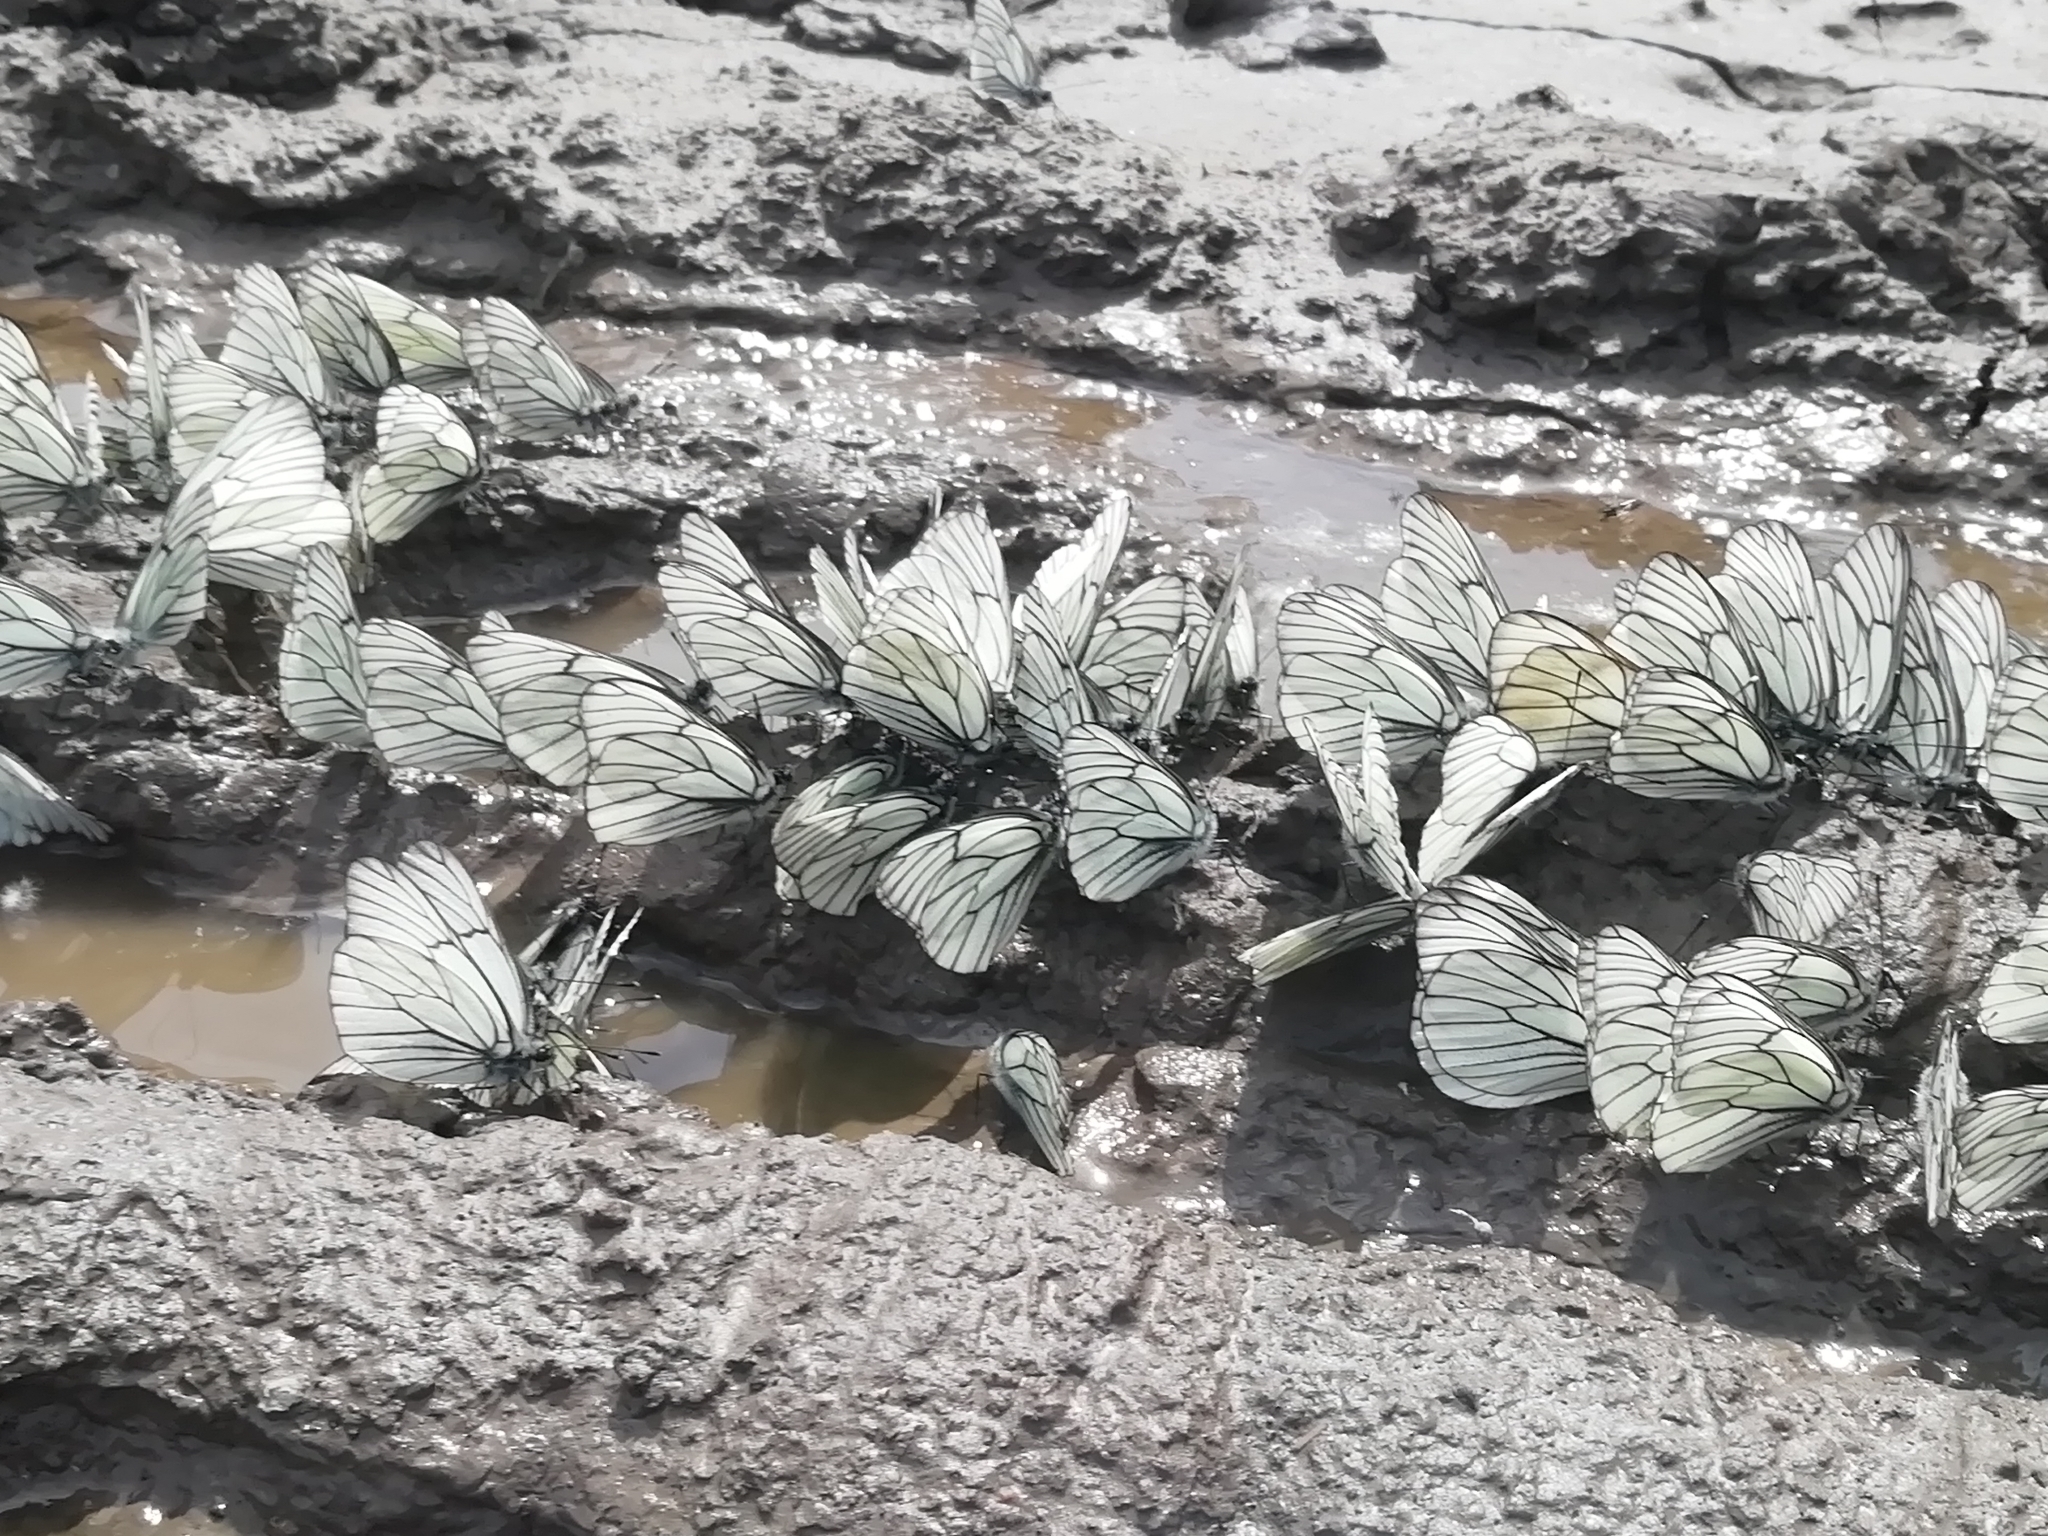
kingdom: Animalia
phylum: Arthropoda
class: Insecta
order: Lepidoptera
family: Pieridae
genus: Aporia
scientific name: Aporia crataegi
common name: Black-veined white
